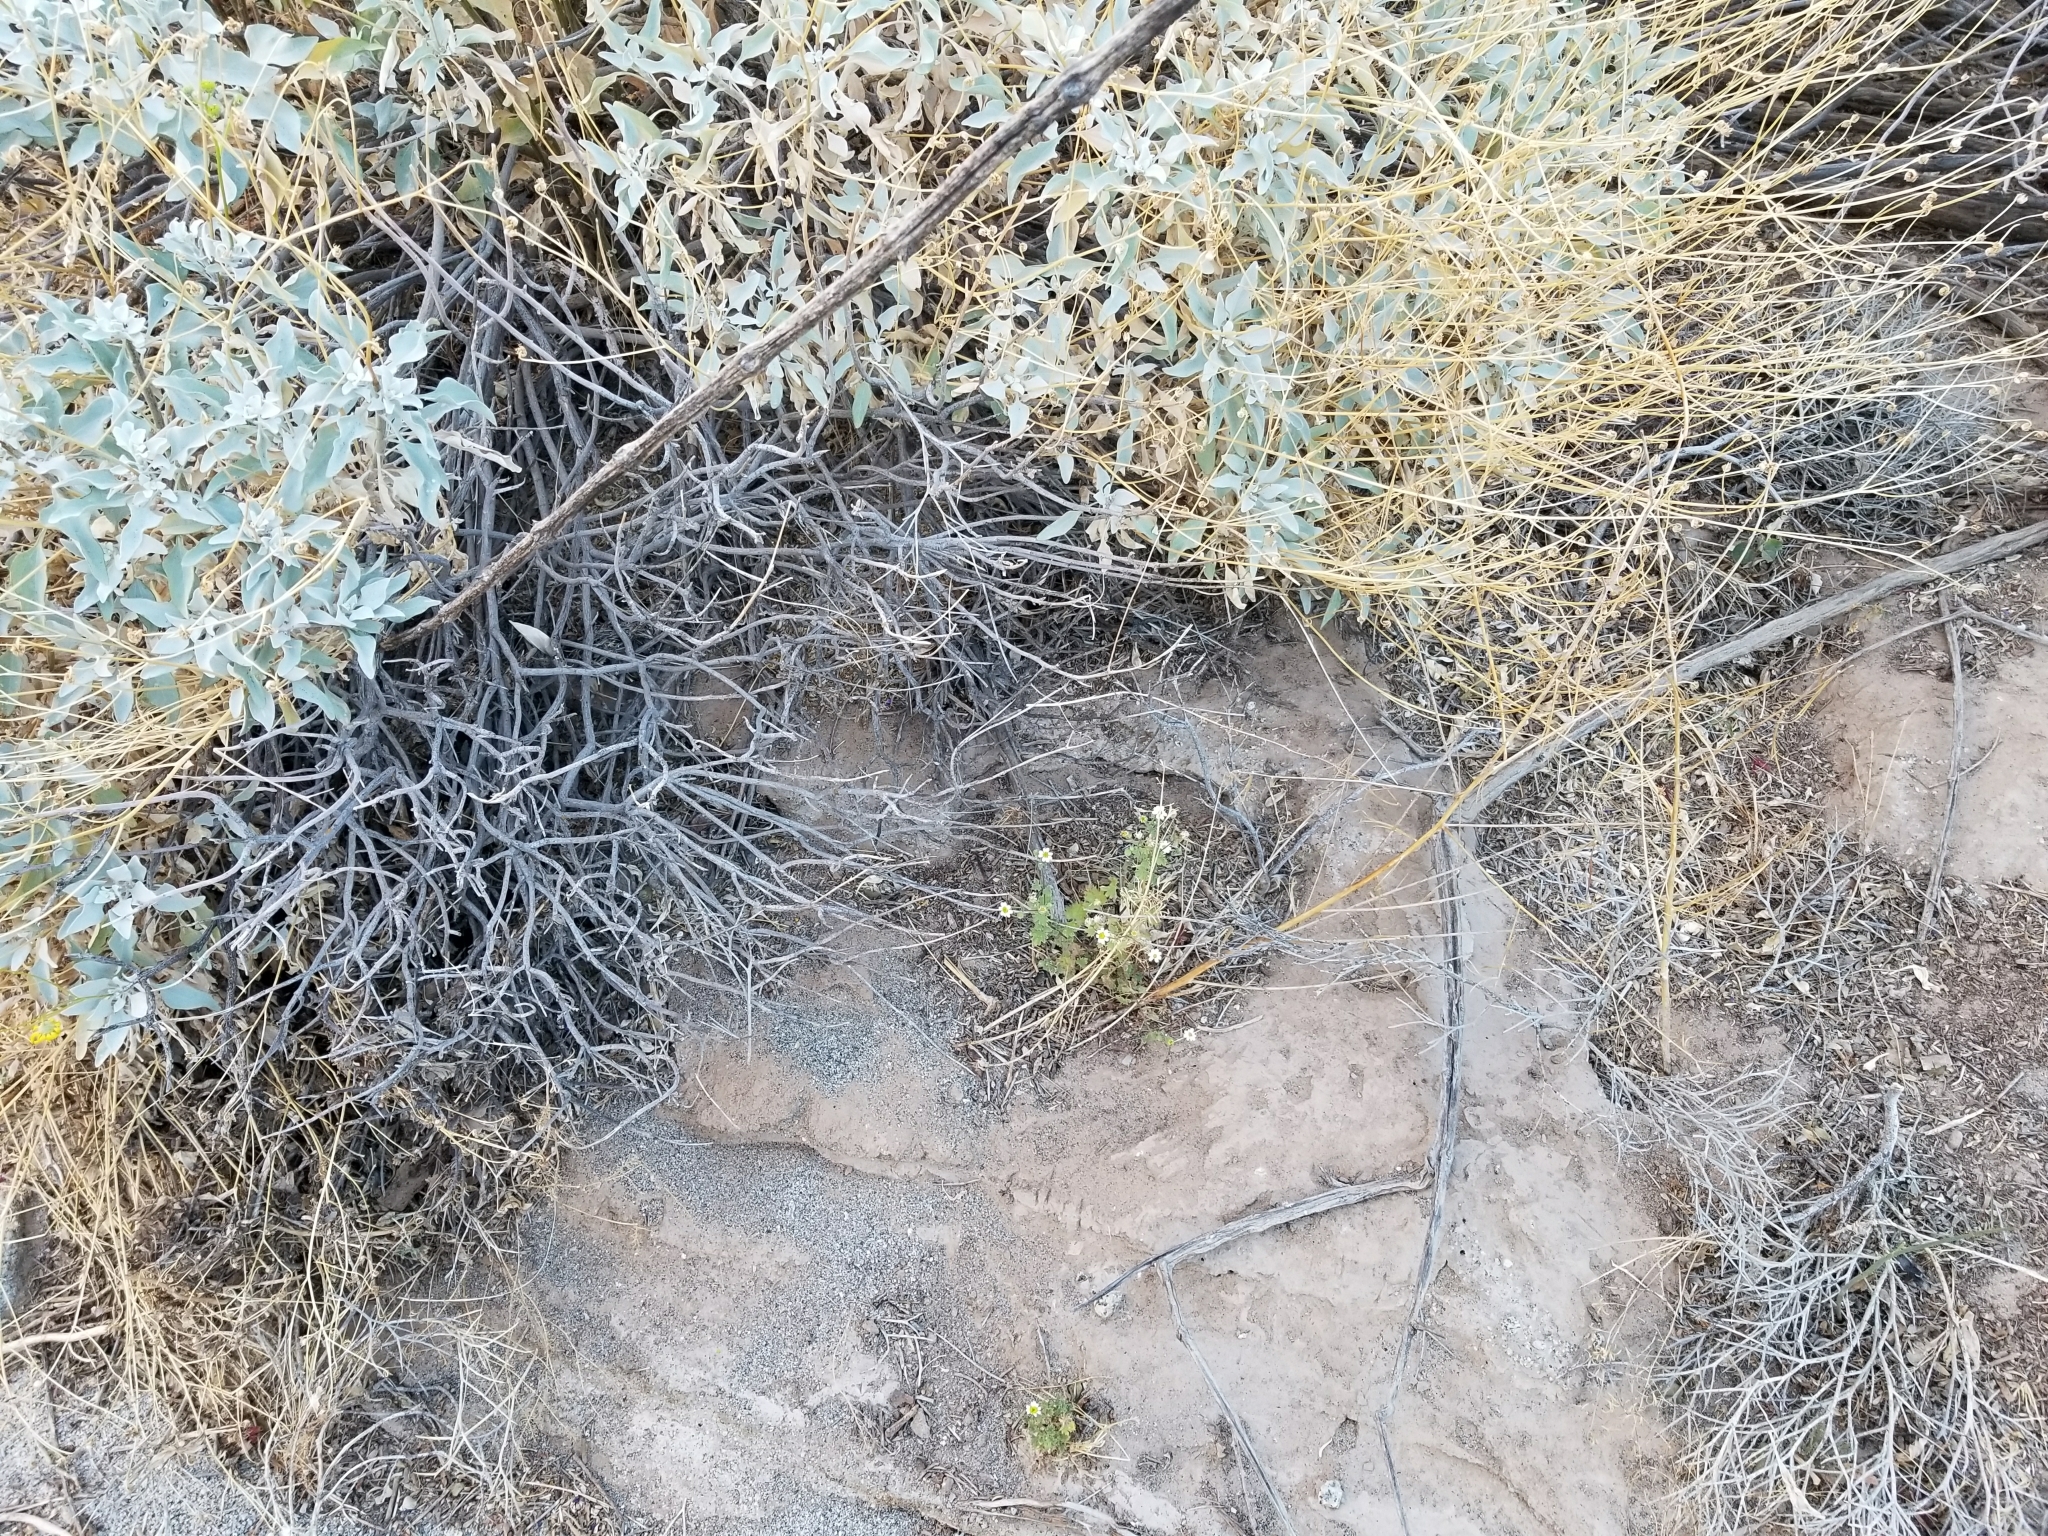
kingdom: Plantae
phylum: Tracheophyta
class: Magnoliopsida
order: Asterales
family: Asteraceae
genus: Laphamia
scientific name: Laphamia emoryi
